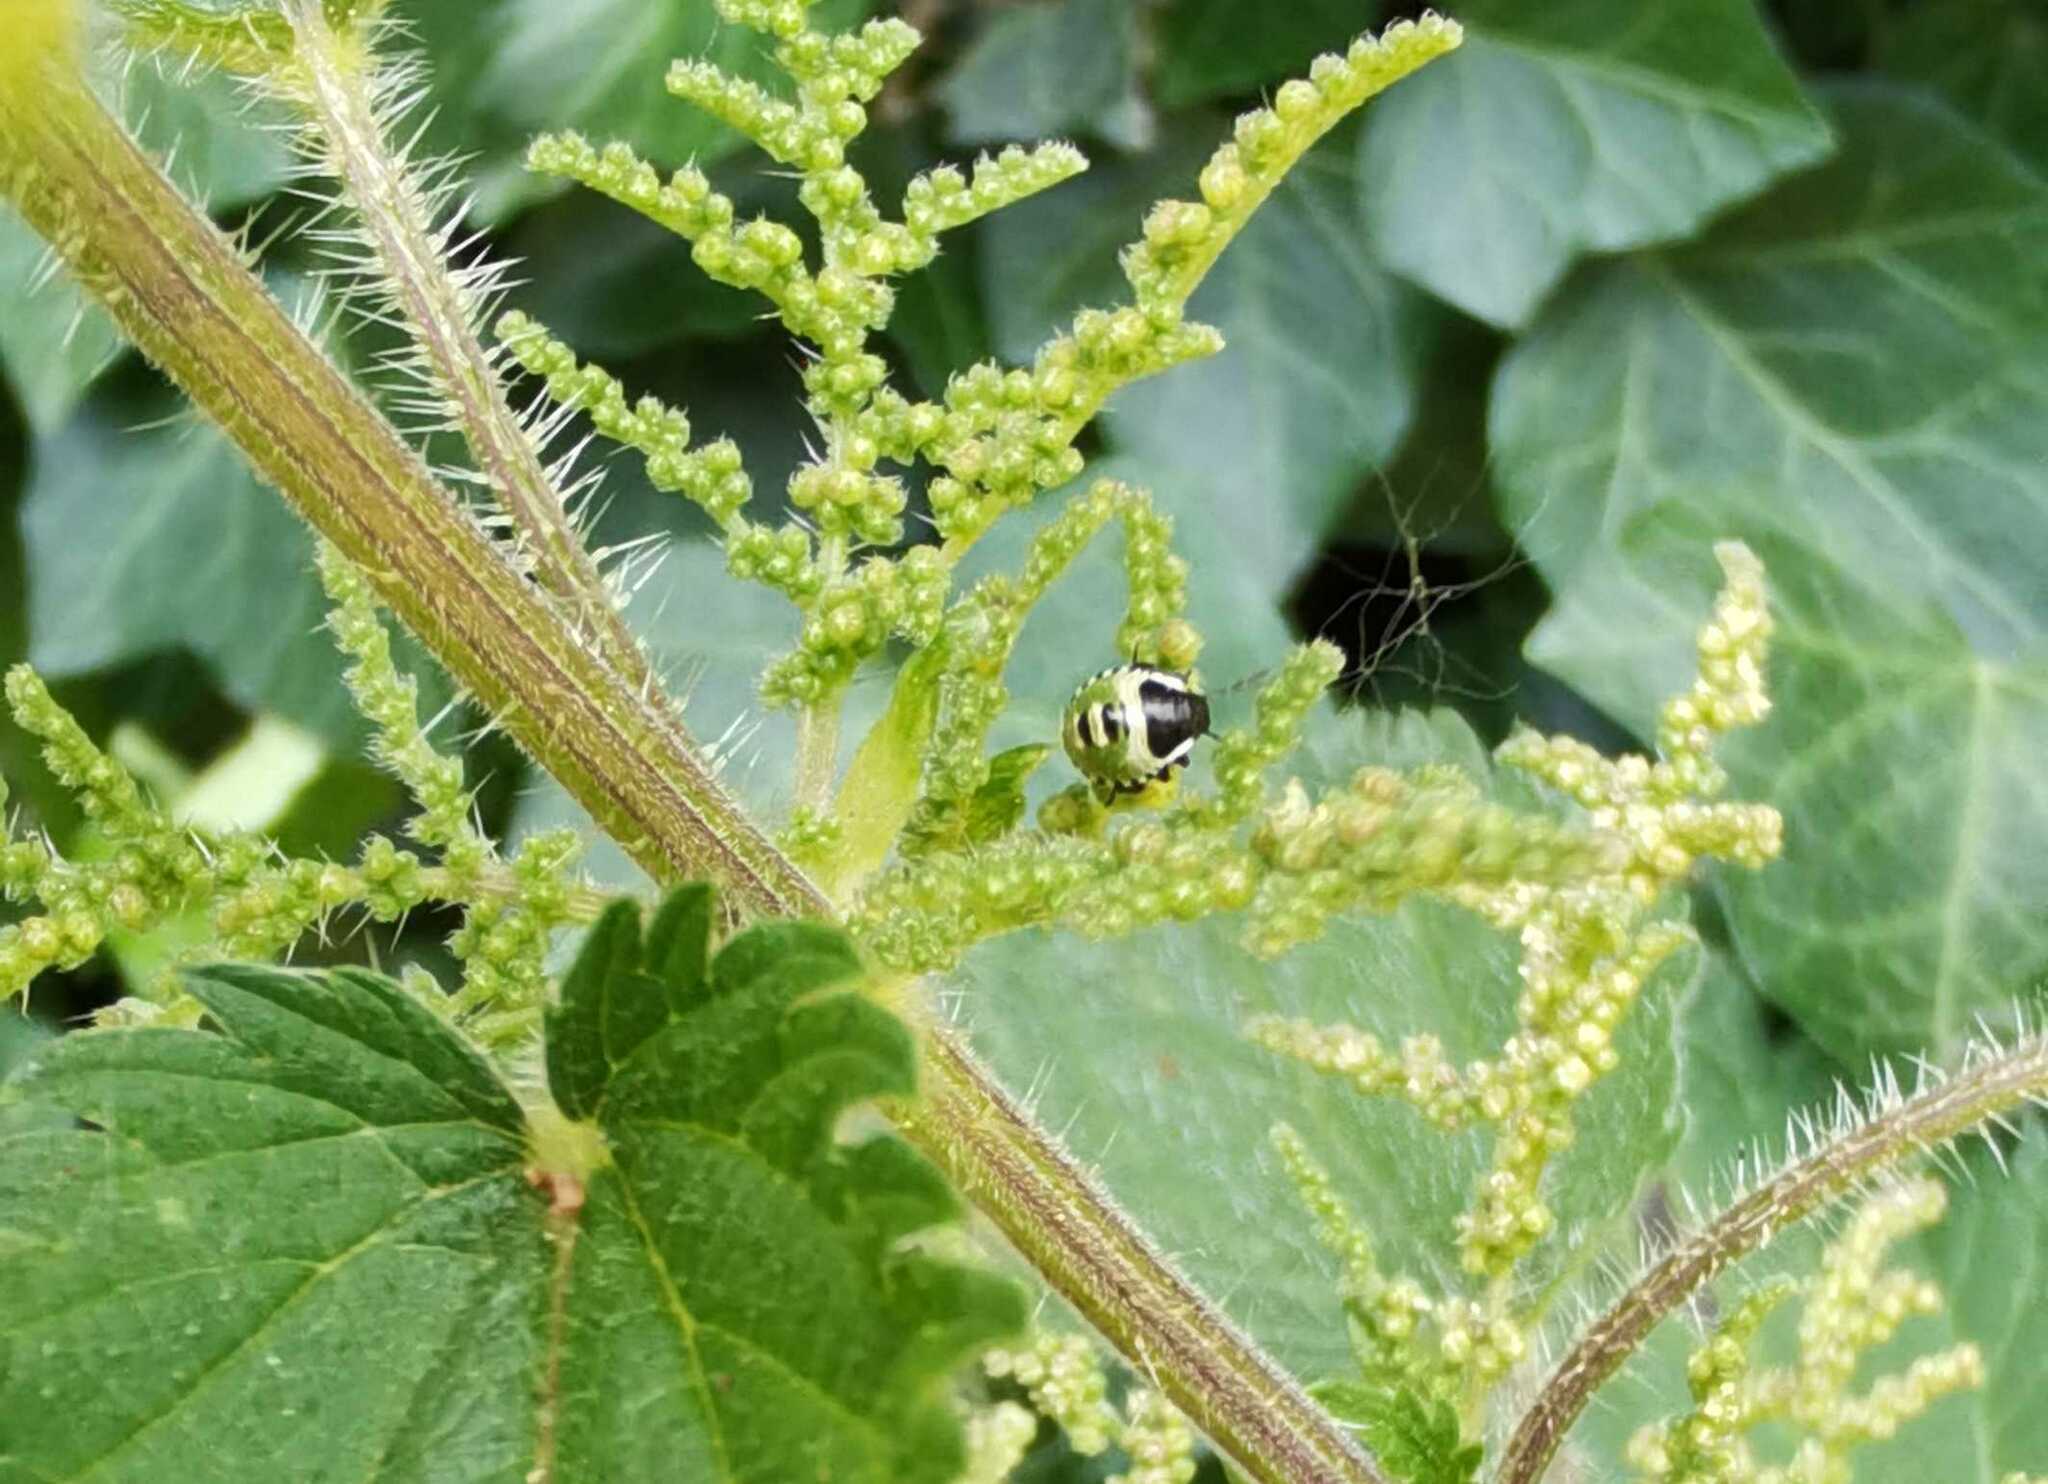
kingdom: Animalia
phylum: Arthropoda
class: Insecta
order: Hemiptera
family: Pentatomidae
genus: Palomena
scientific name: Palomena prasina
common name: Green shieldbug
